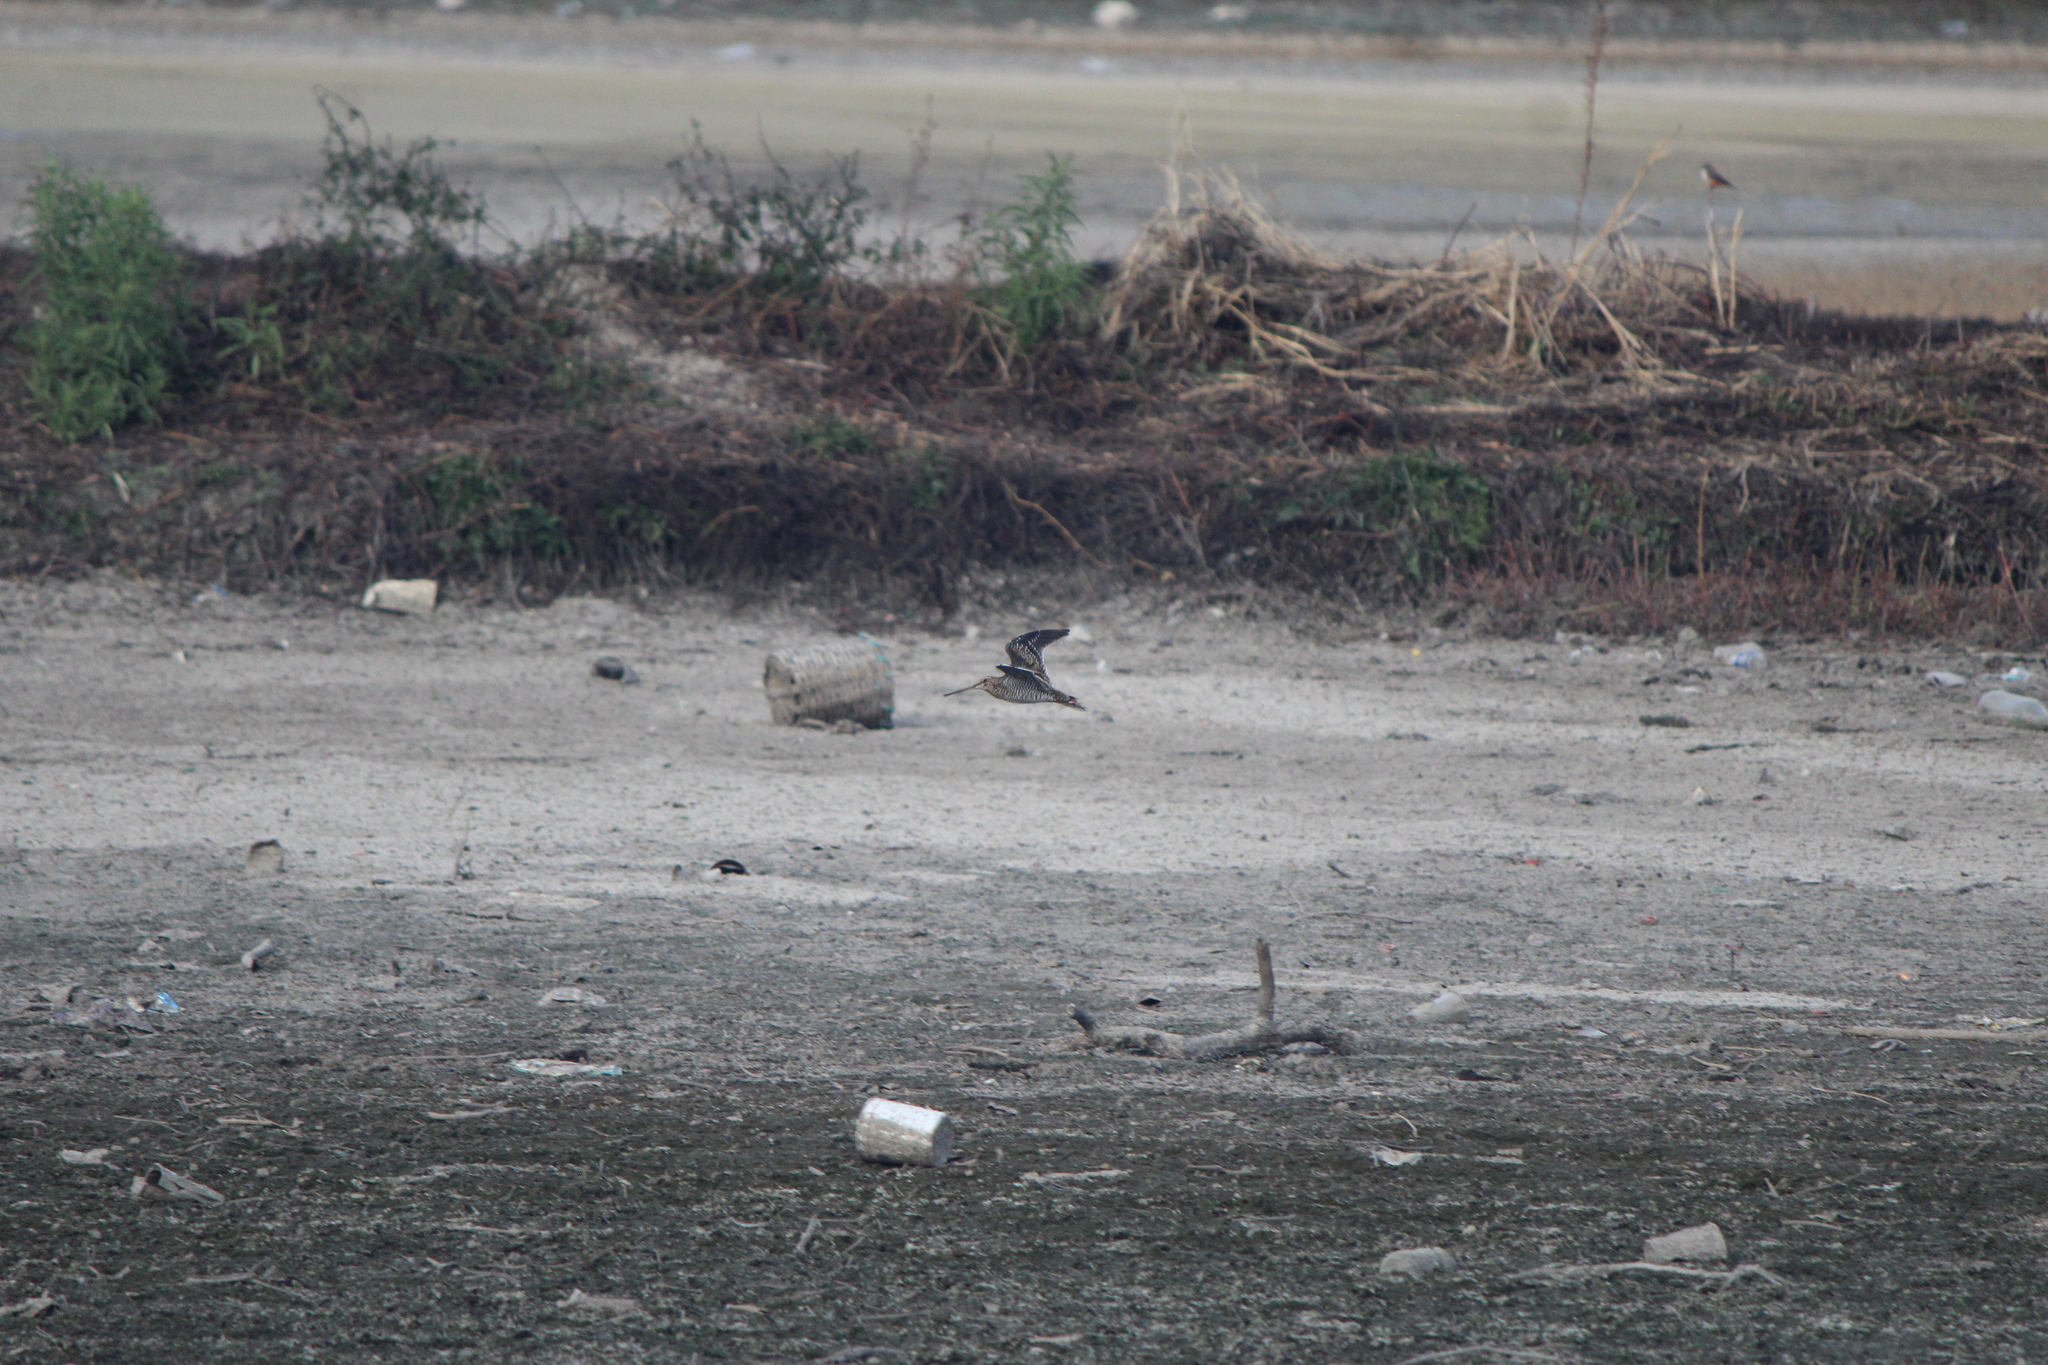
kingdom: Animalia
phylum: Chordata
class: Aves
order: Charadriiformes
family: Scolopacidae
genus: Gallinago
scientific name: Gallinago delicata
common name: Wilson's snipe
